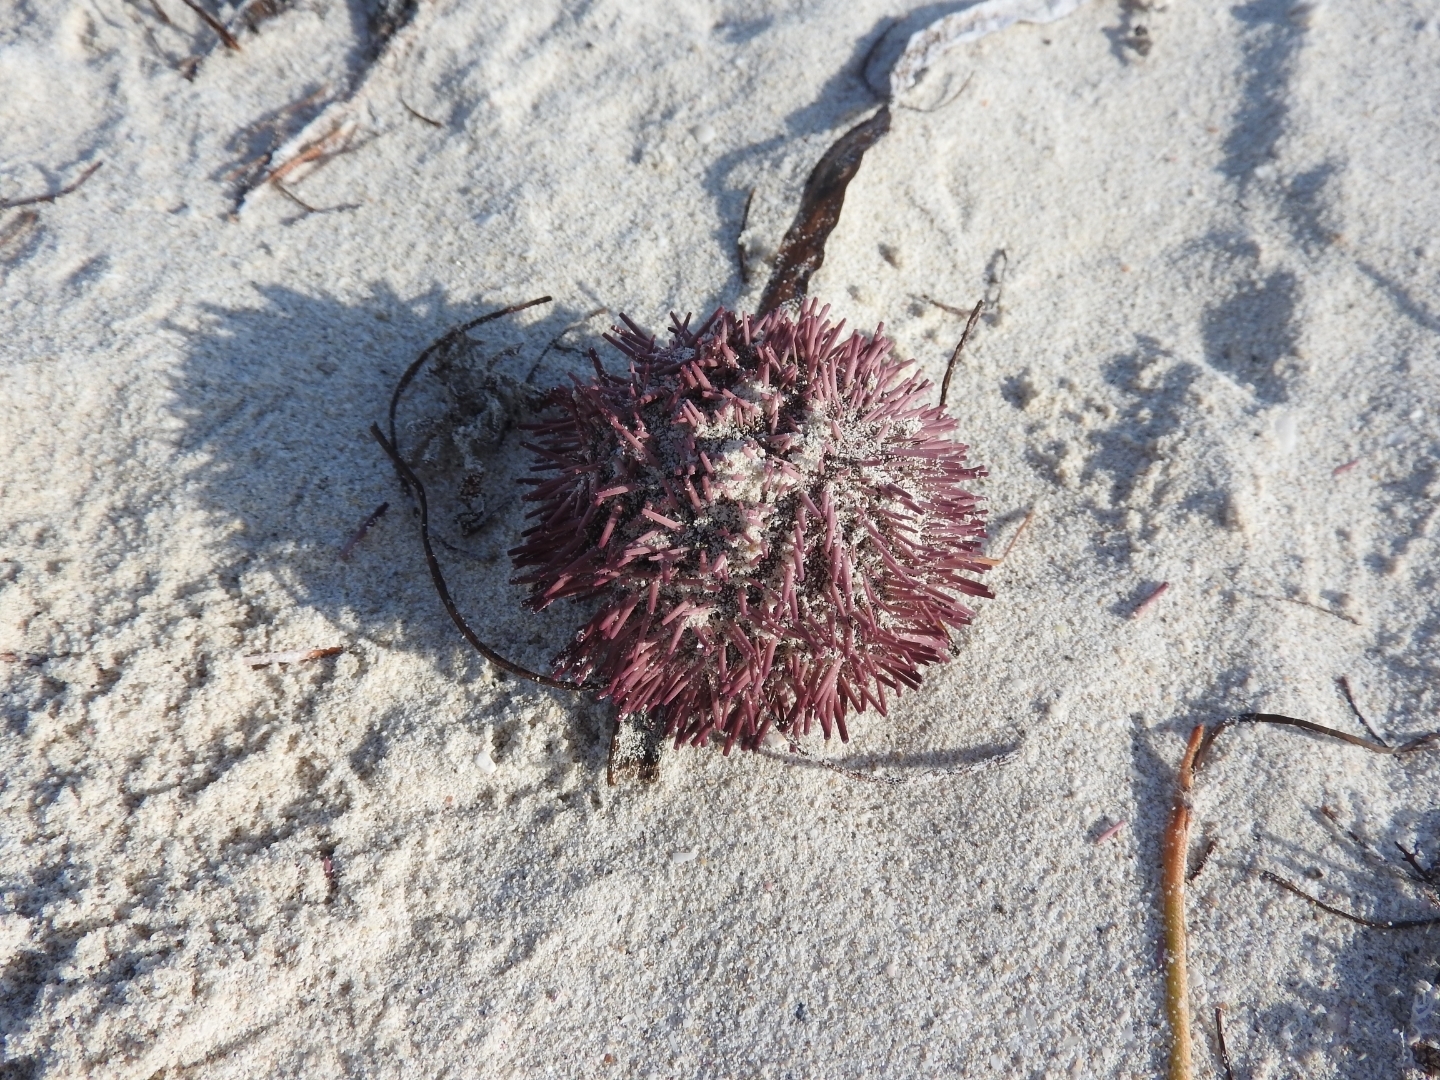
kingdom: Animalia
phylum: Echinodermata
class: Echinoidea
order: Camarodonta
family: Toxopneustidae
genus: Lytechinus
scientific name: Lytechinus variegatus
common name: Variegated urchin
